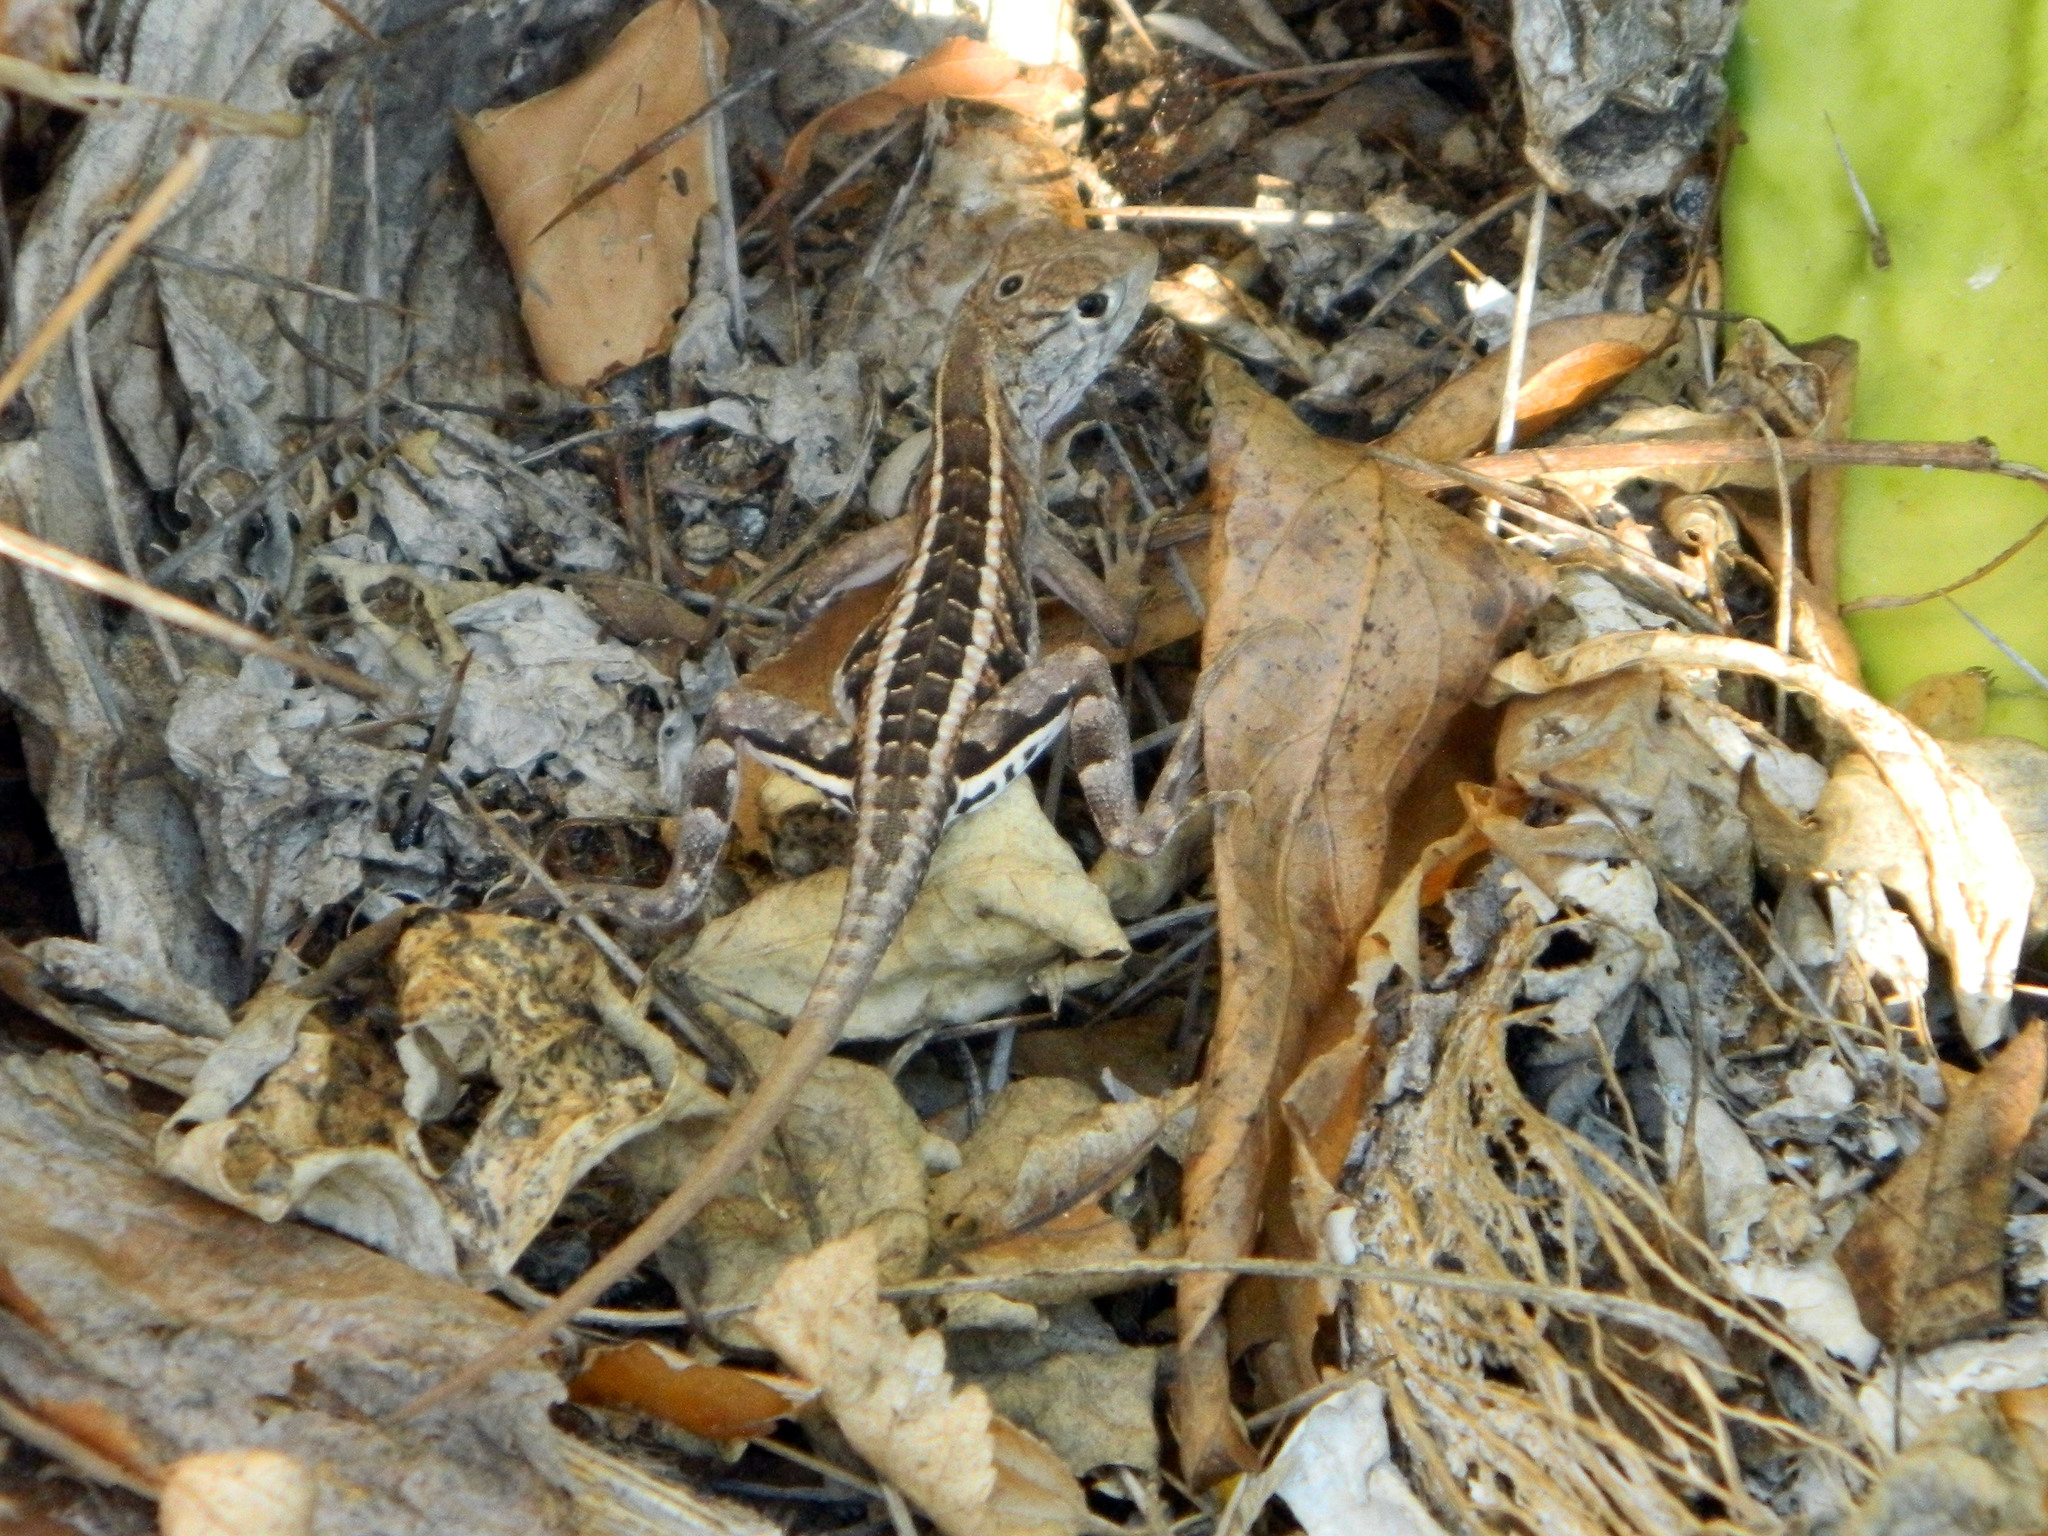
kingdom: Animalia
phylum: Chordata
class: Squamata
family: Opluridae
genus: Chalarodon
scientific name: Chalarodon madagascariensis
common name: Madagascar iguana
